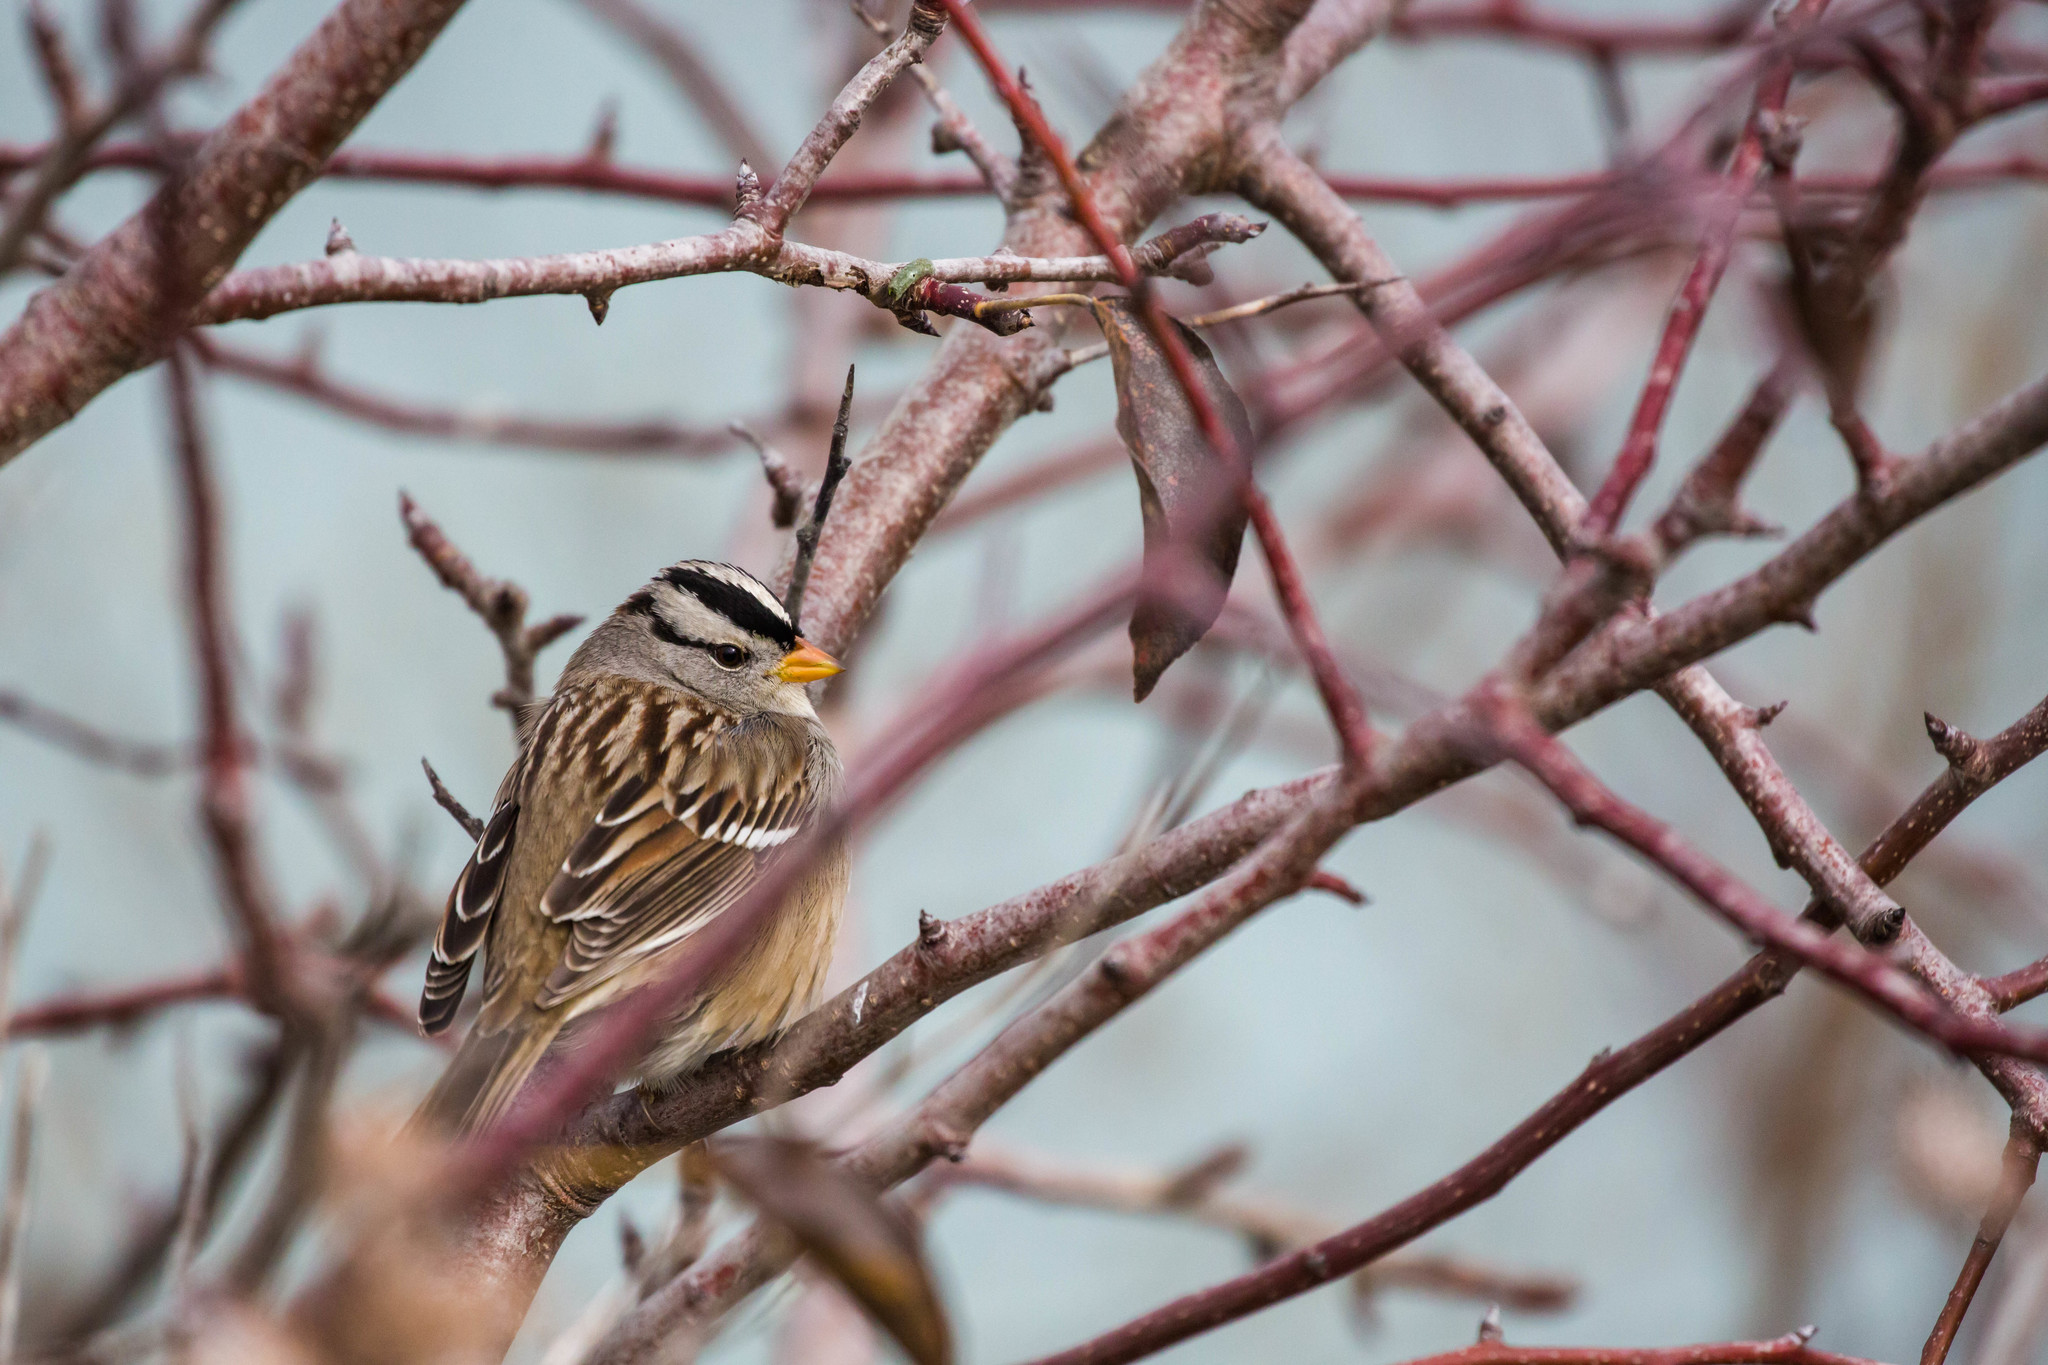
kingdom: Animalia
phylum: Chordata
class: Aves
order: Passeriformes
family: Passerellidae
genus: Zonotrichia
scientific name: Zonotrichia leucophrys
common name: White-crowned sparrow
